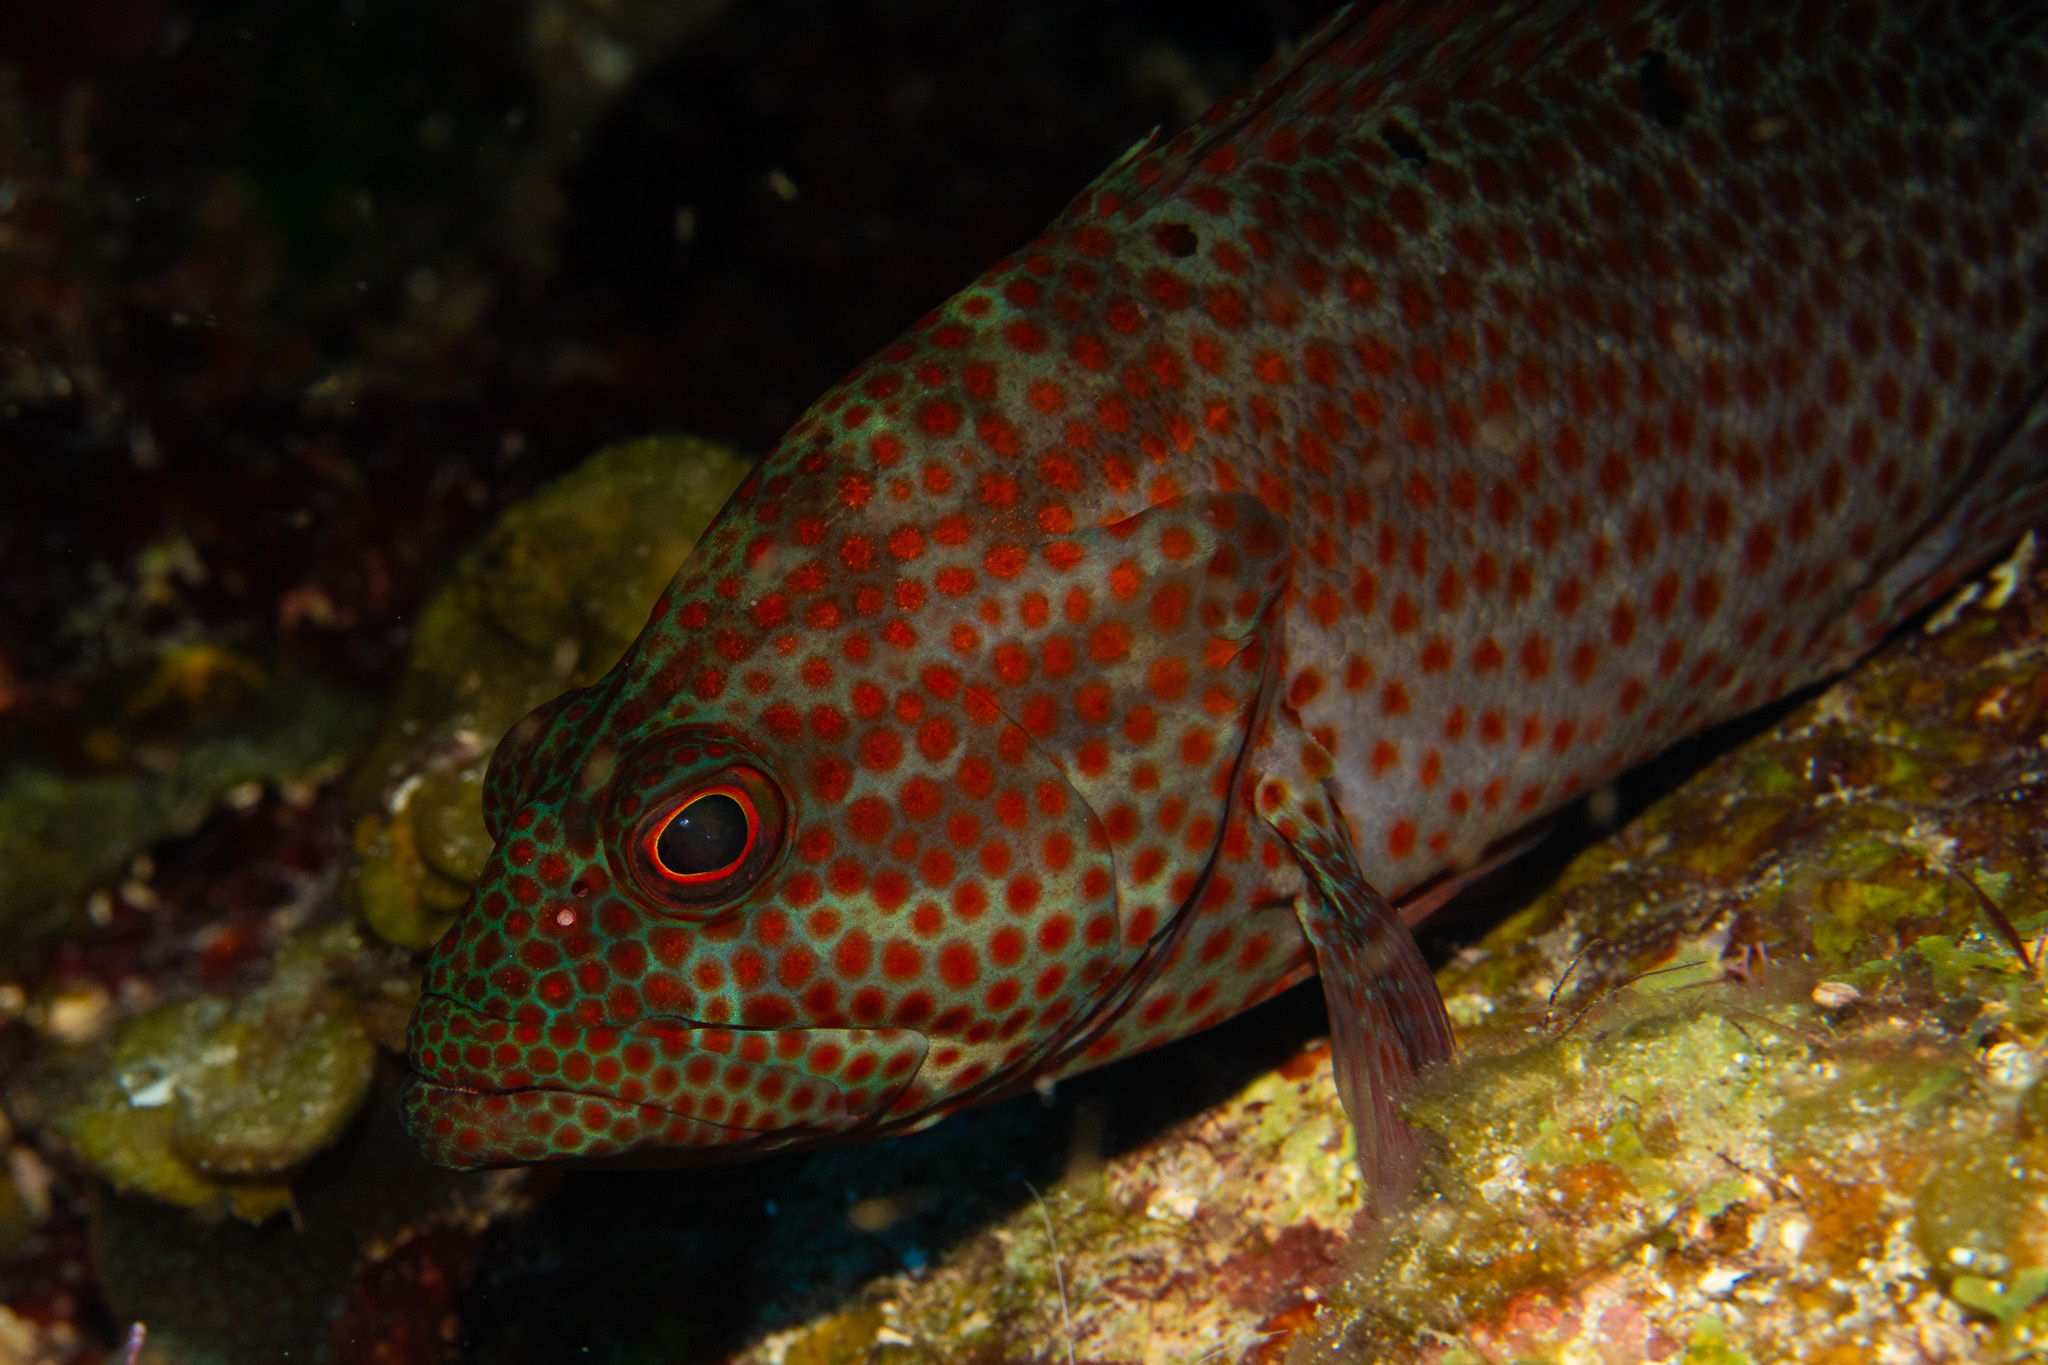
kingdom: Animalia
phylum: Chordata
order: Perciformes
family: Serranidae
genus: Cephalopholis
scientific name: Cephalopholis cruentata
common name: Graysby
